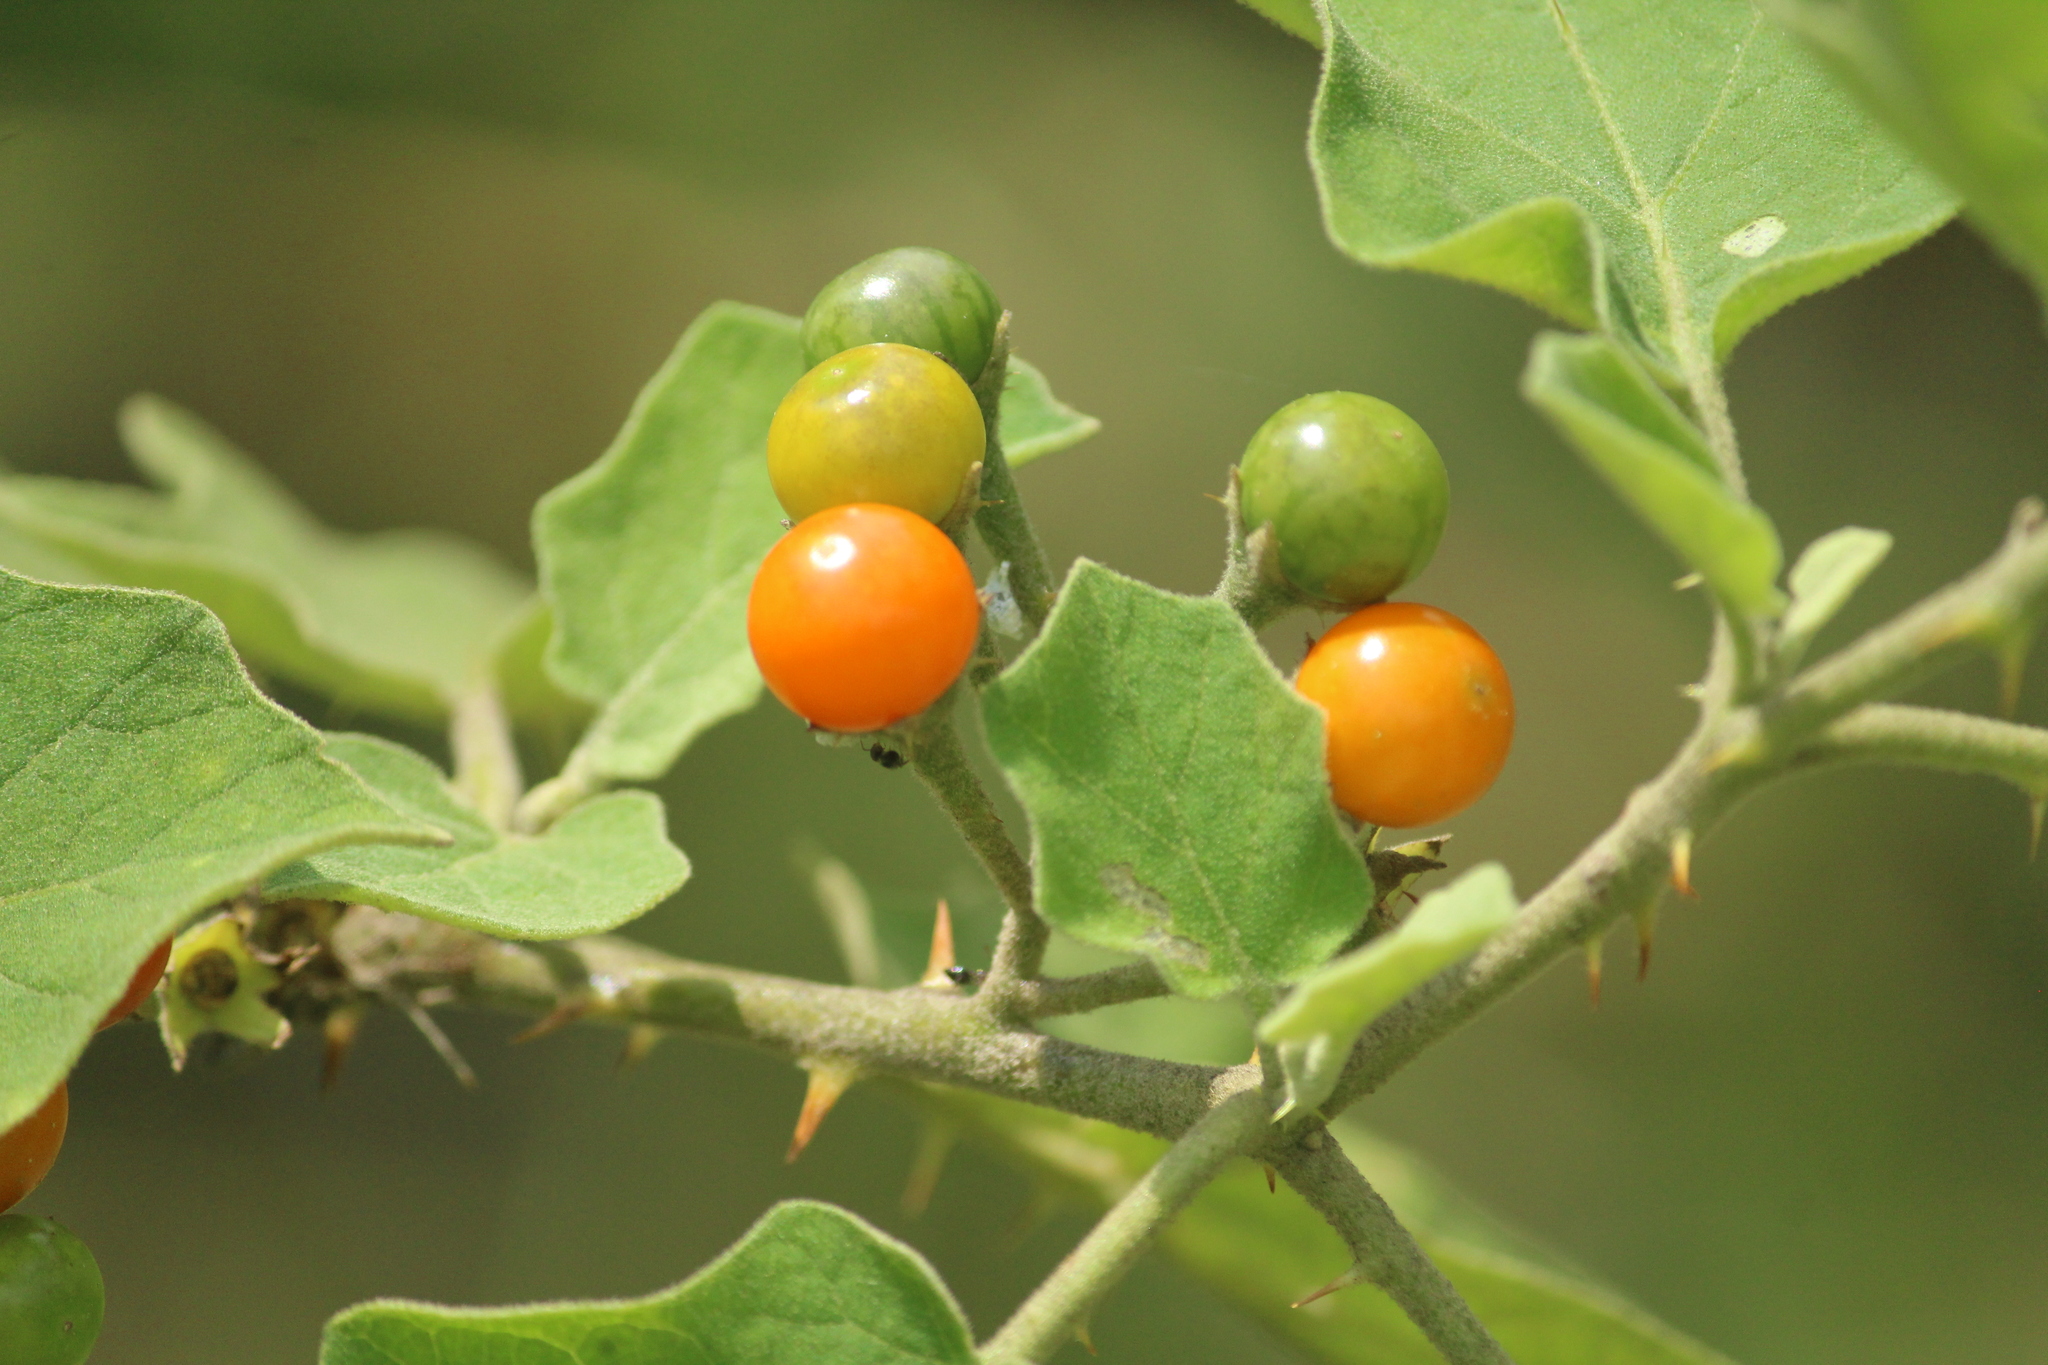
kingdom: Plantae
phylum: Tracheophyta
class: Magnoliopsida
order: Solanales
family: Solanaceae
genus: Solanum
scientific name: Solanum violaceum
